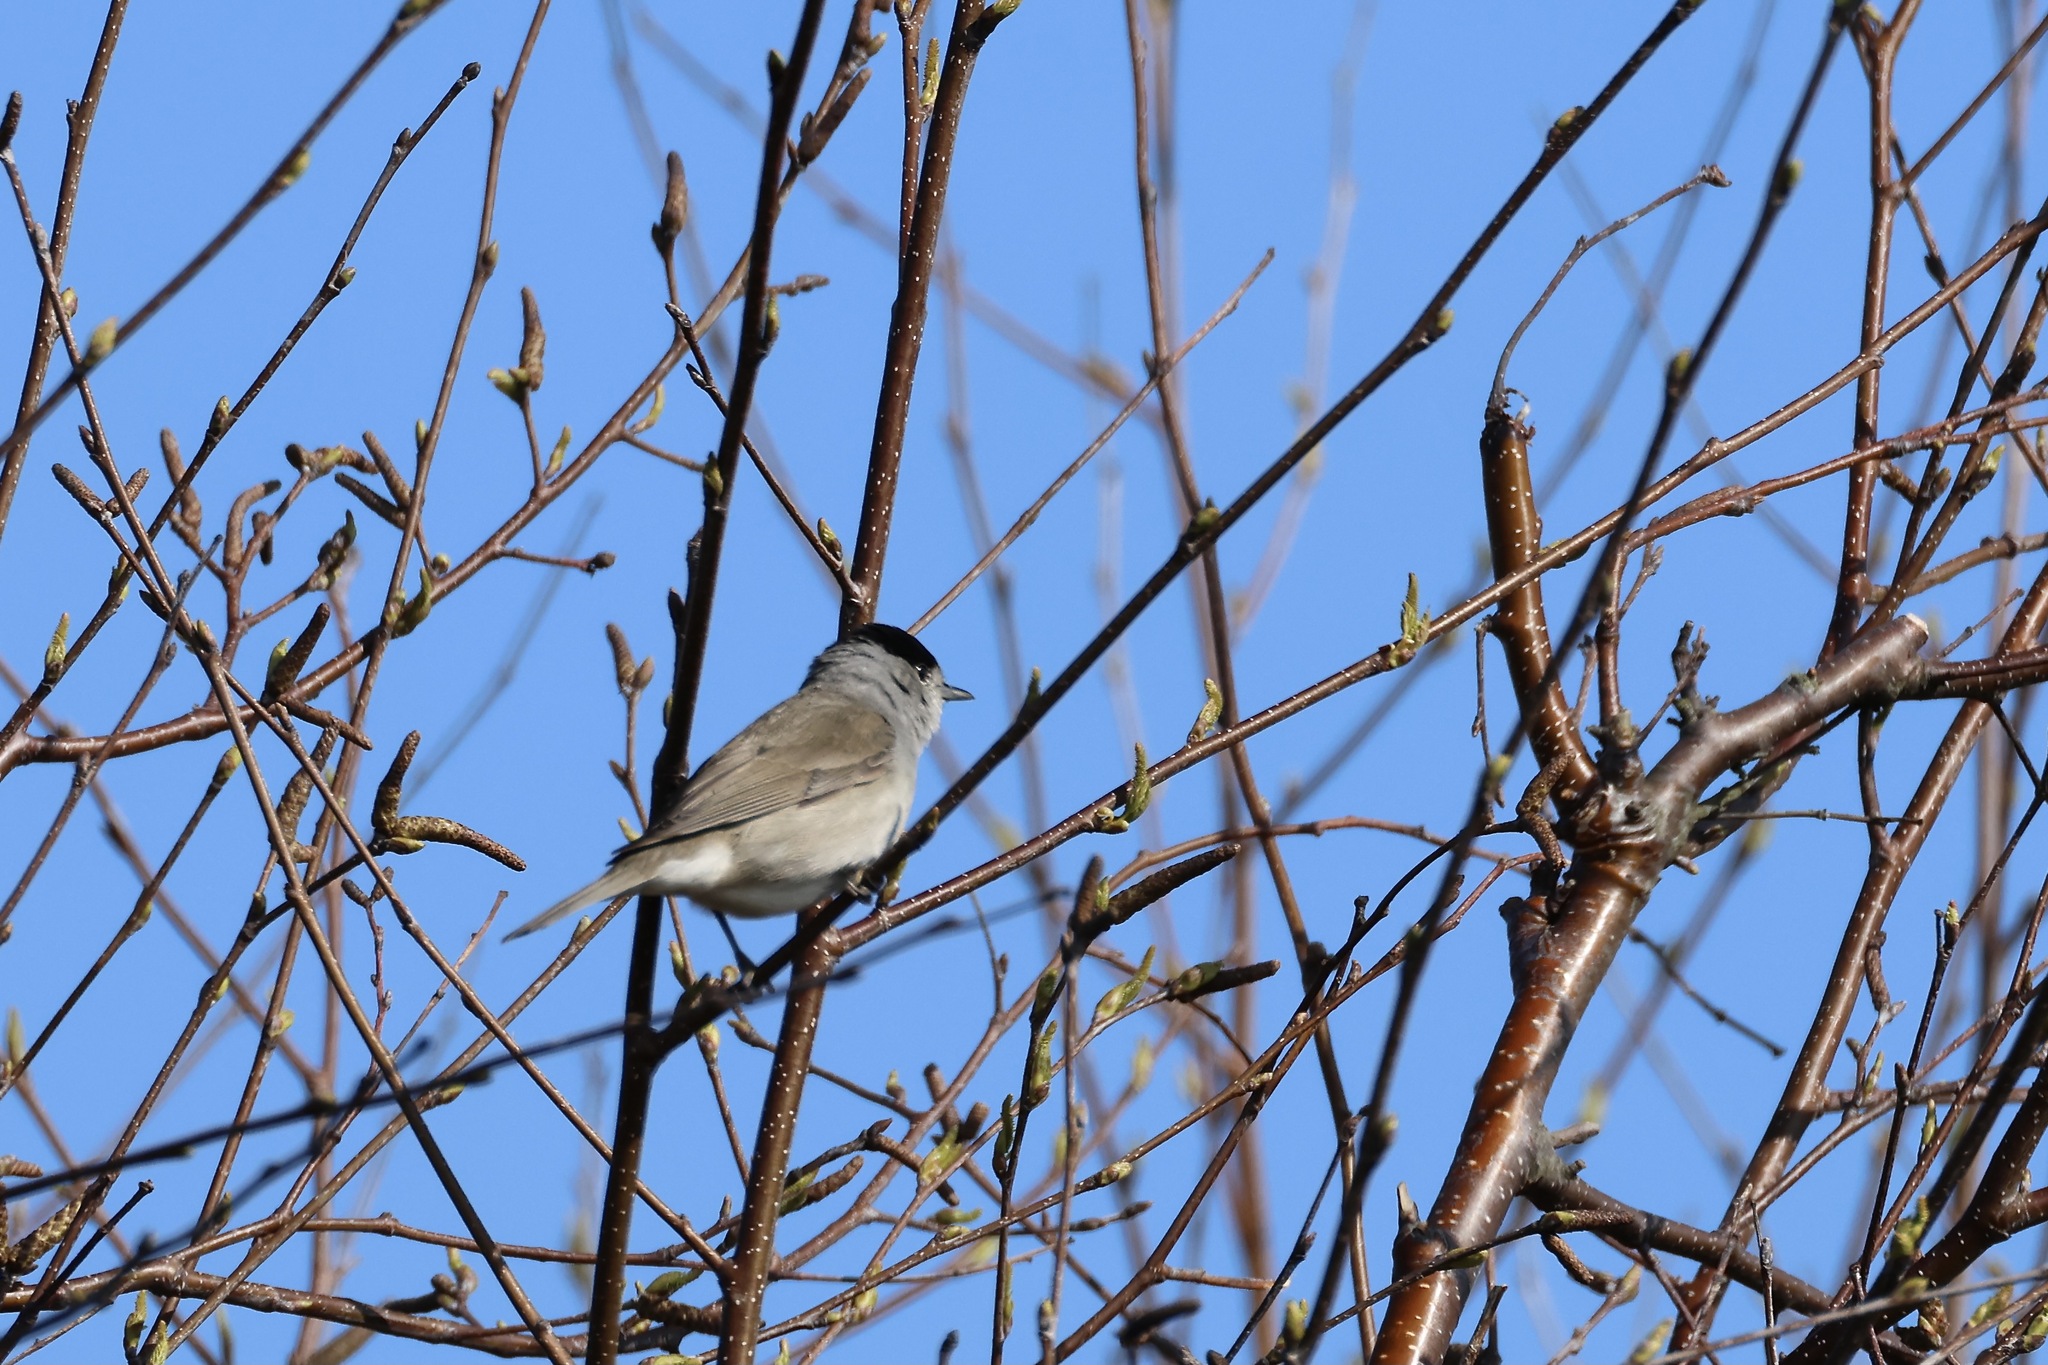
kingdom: Animalia
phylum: Chordata
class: Aves
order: Passeriformes
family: Sylviidae
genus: Sylvia
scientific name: Sylvia atricapilla
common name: Eurasian blackcap
